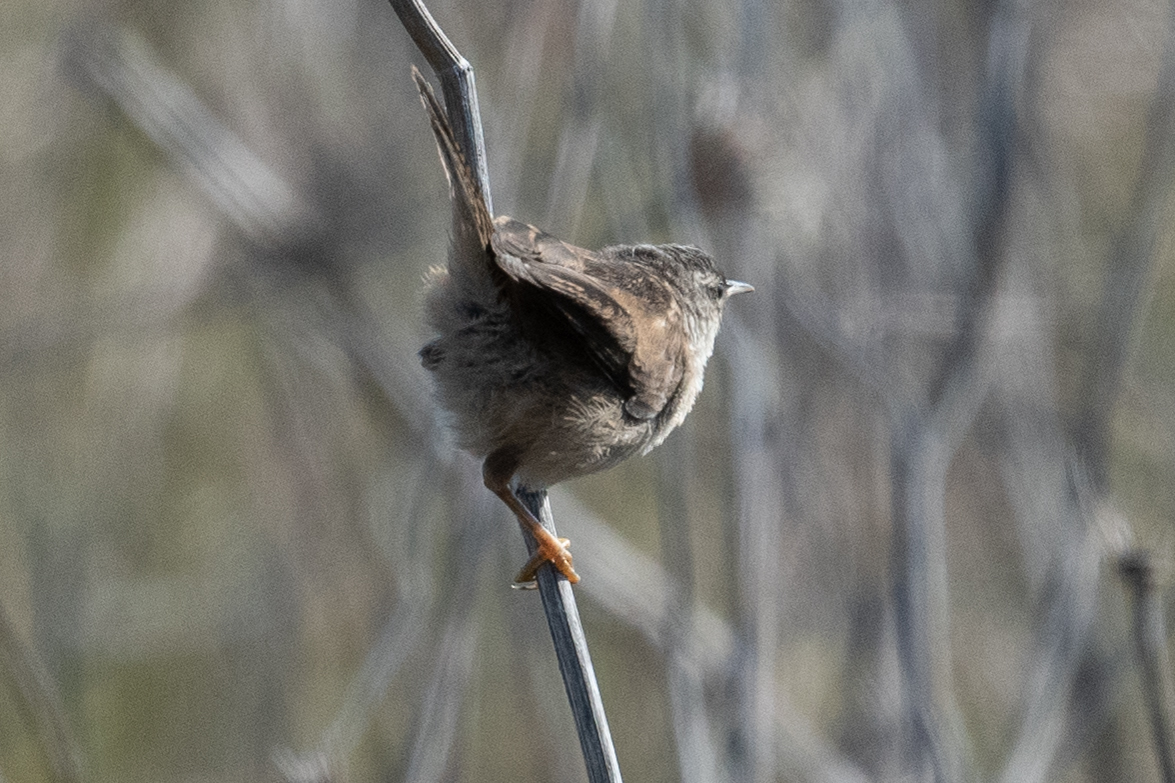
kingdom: Animalia
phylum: Chordata
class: Aves
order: Passeriformes
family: Troglodytidae
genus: Cistothorus
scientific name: Cistothorus palustris
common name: Marsh wren
